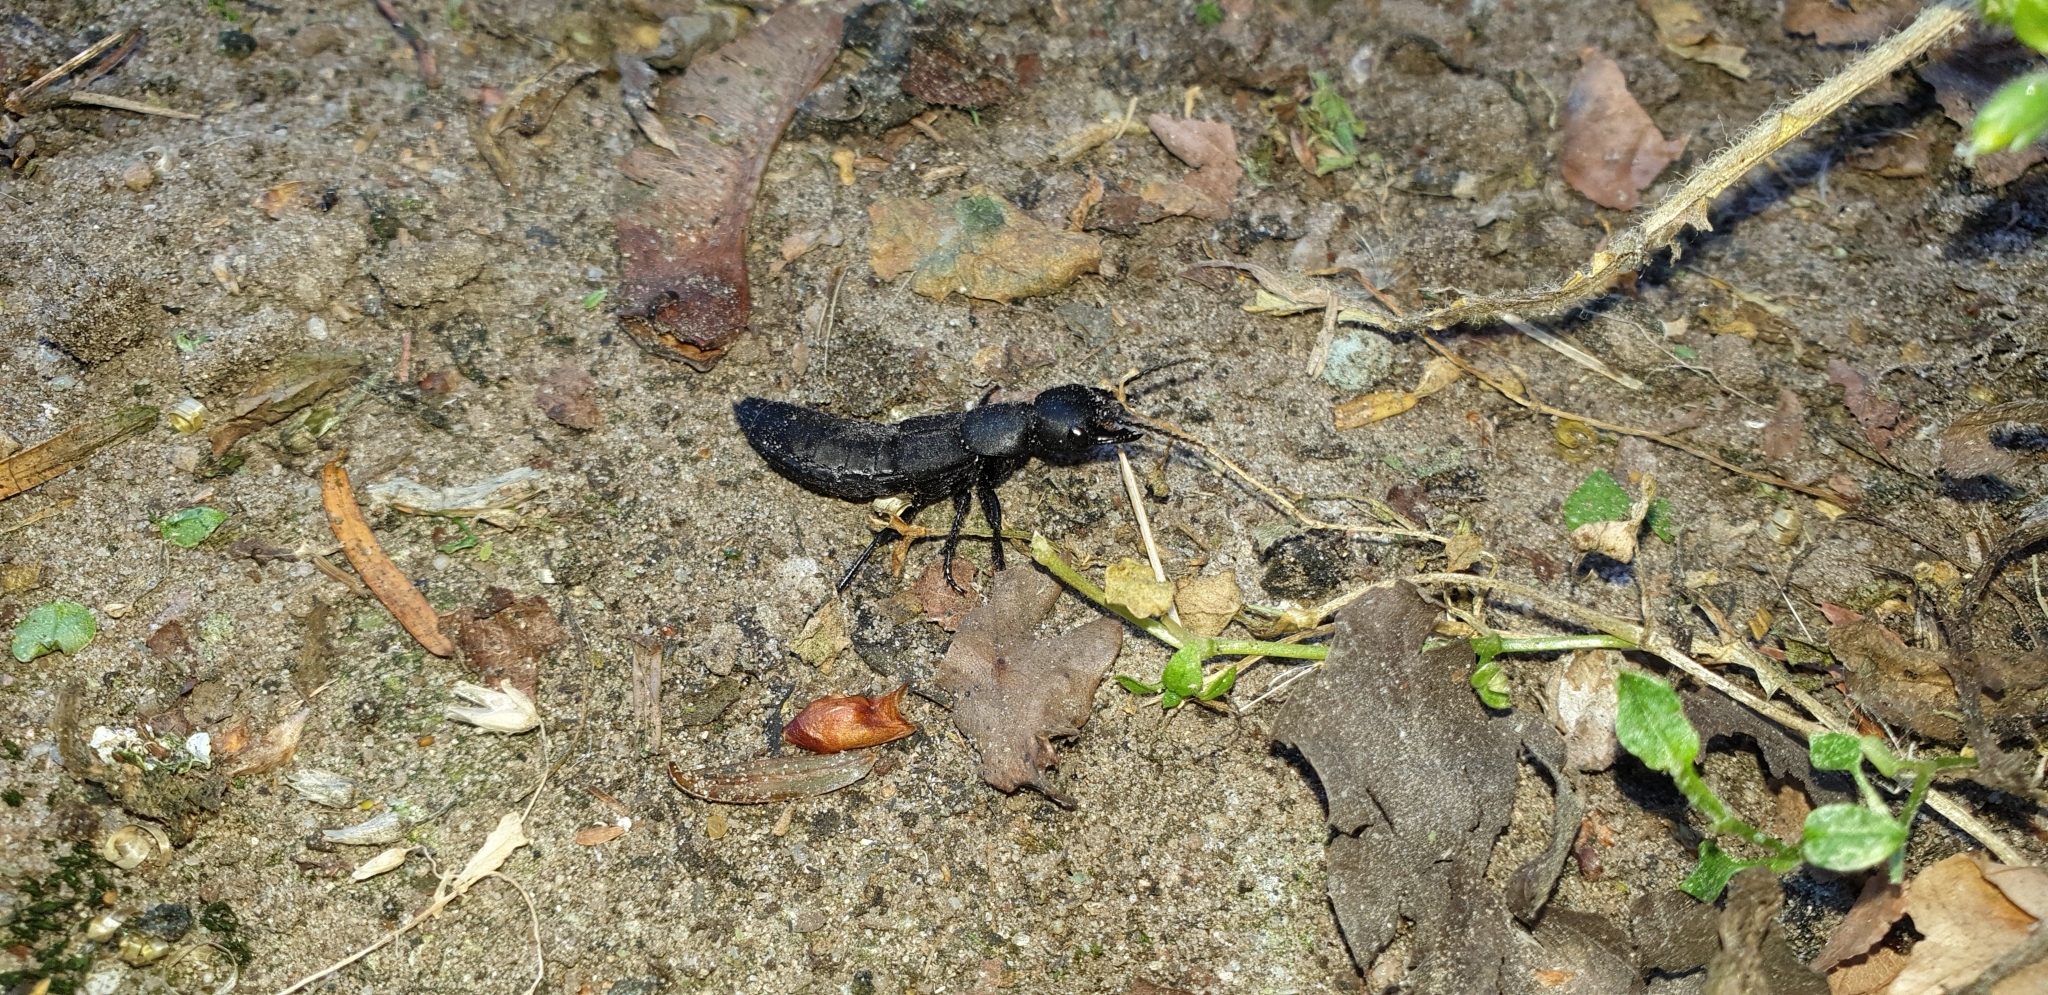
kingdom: Animalia
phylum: Arthropoda
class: Insecta
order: Coleoptera
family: Staphylinidae
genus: Ocypus
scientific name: Ocypus olens
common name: Devil's coach-horse
